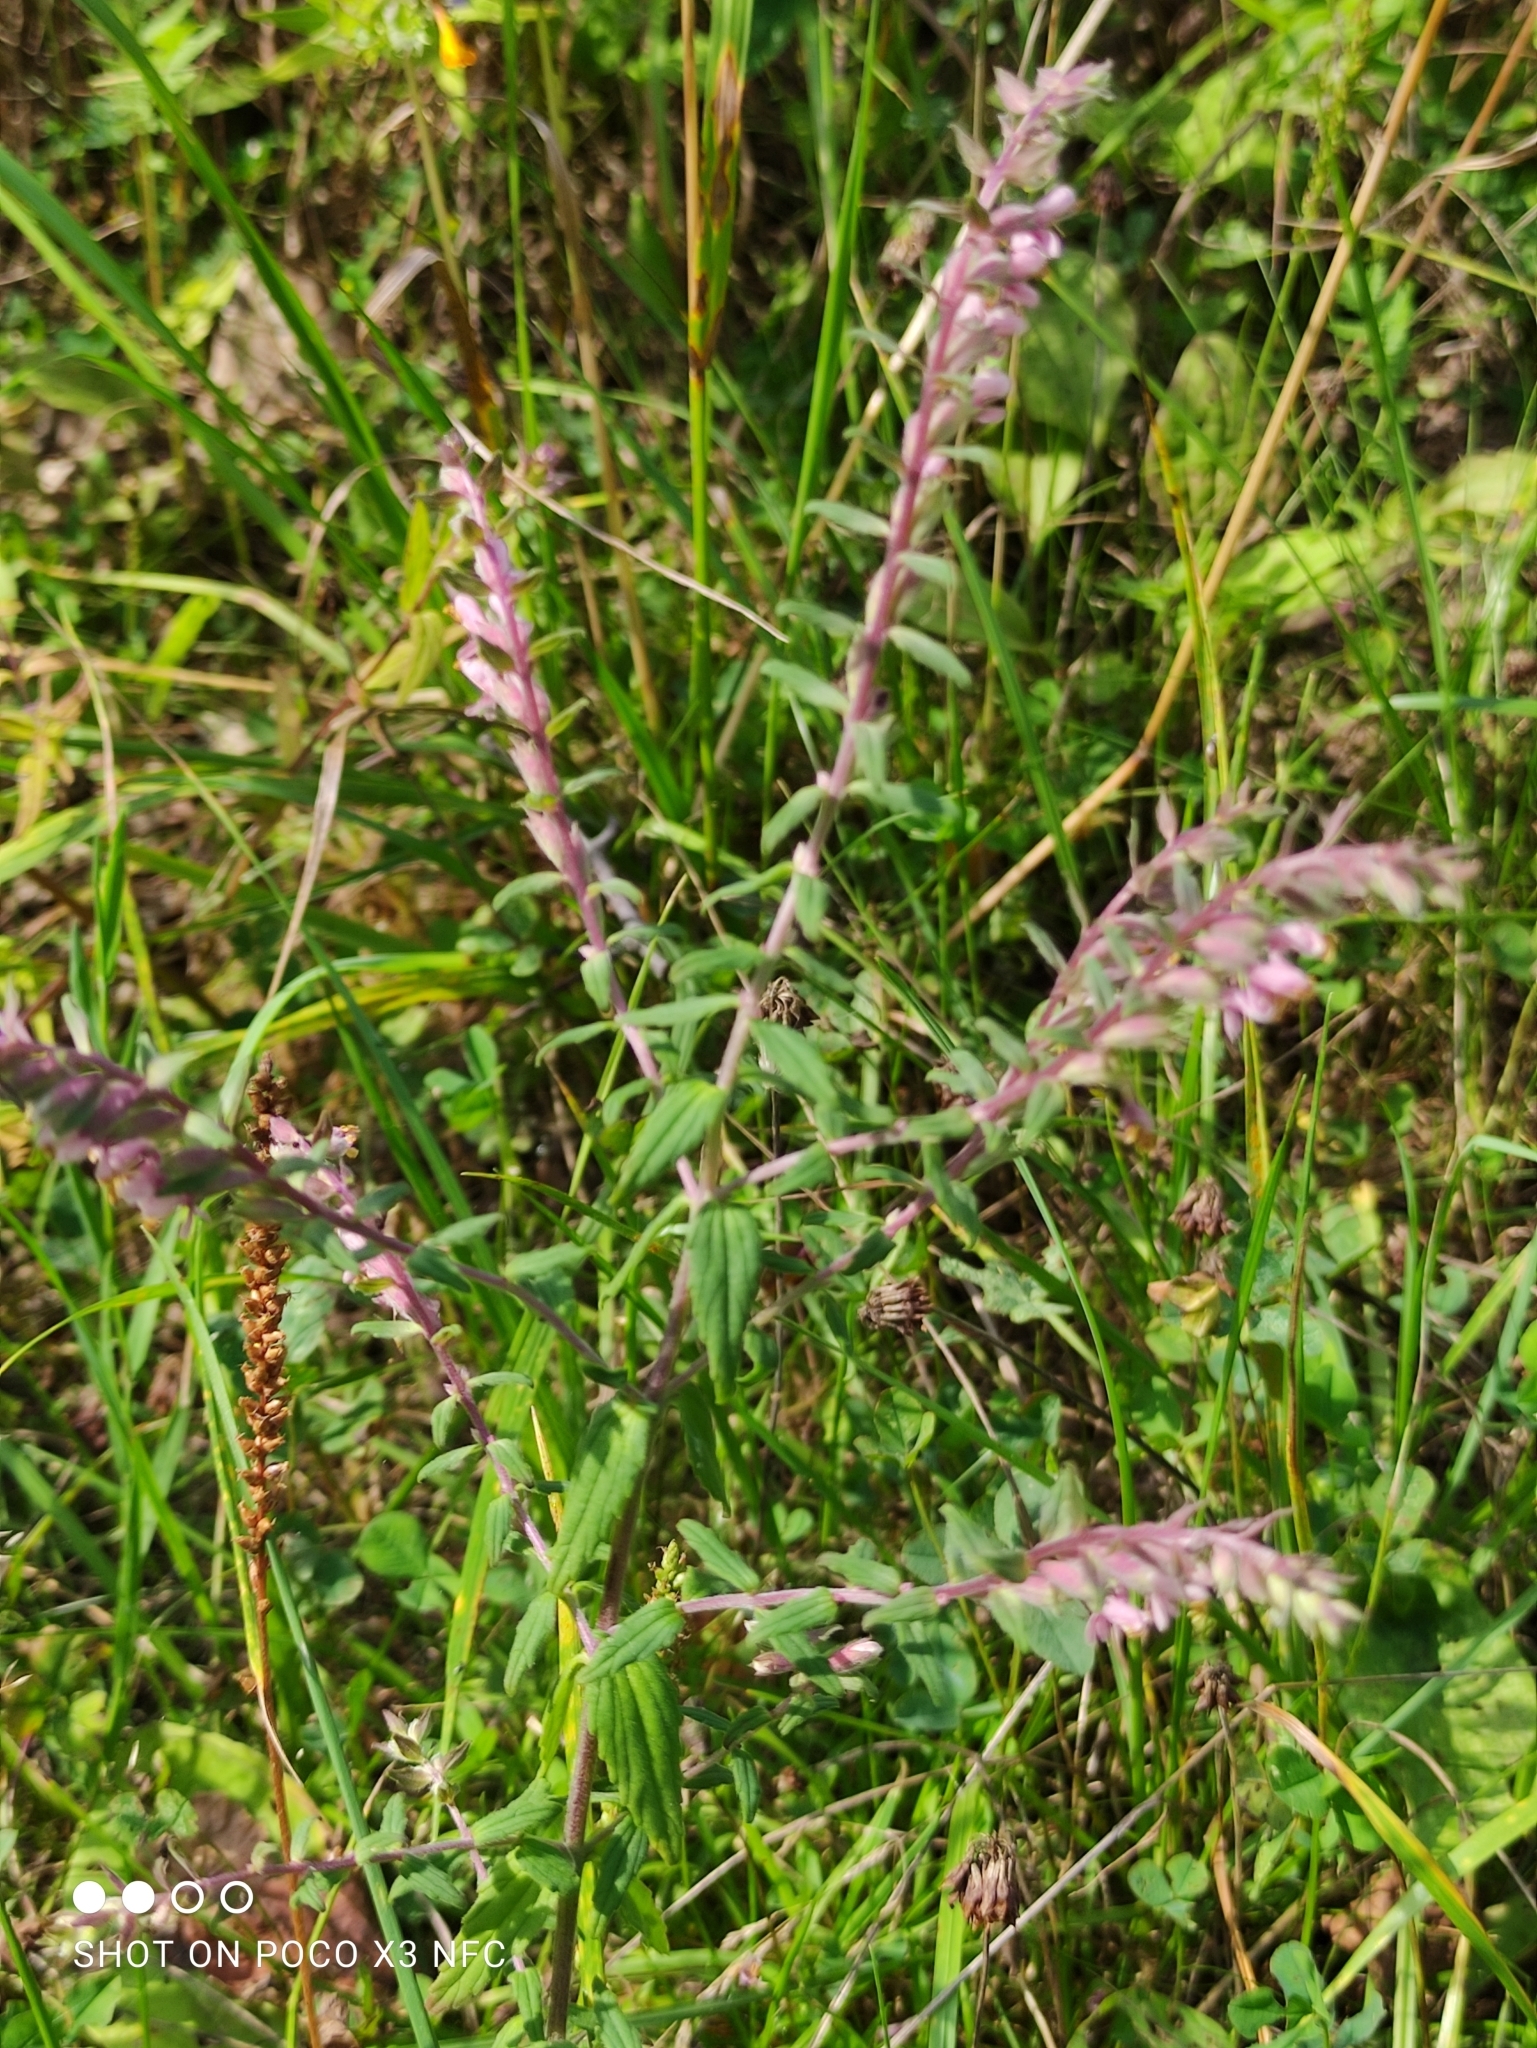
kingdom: Plantae
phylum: Tracheophyta
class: Magnoliopsida
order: Lamiales
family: Orobanchaceae
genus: Odontites
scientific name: Odontites vulgaris
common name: Broomrape
